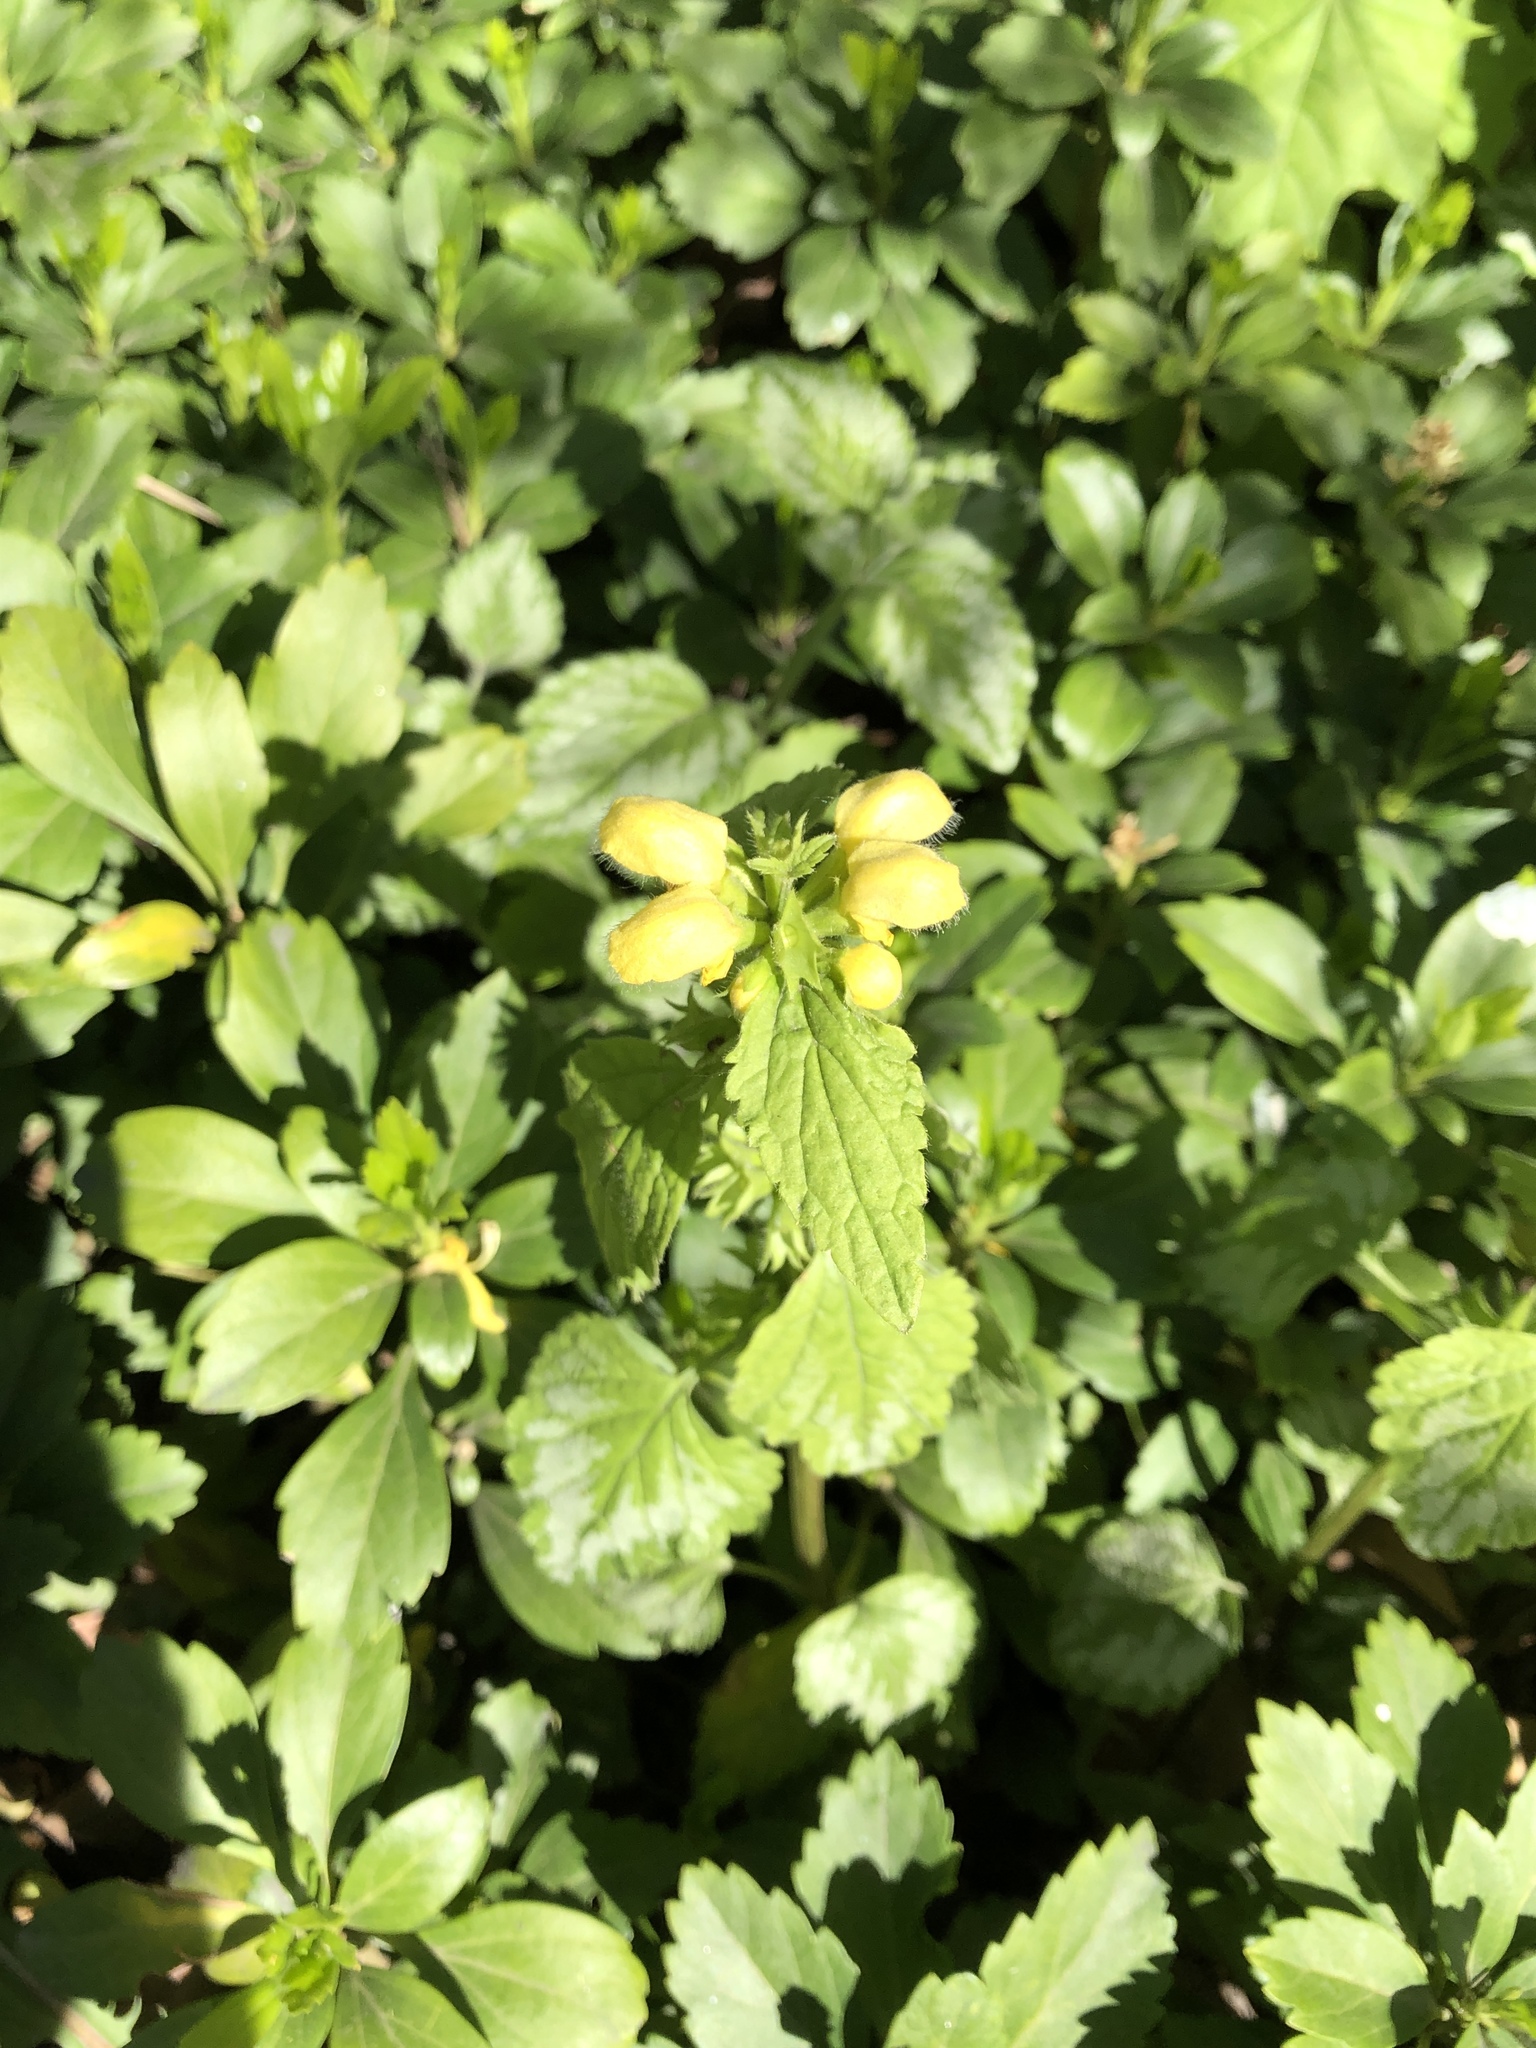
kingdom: Plantae
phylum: Tracheophyta
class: Magnoliopsida
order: Lamiales
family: Lamiaceae
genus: Lamium
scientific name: Lamium galeobdolon
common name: Yellow archangel
